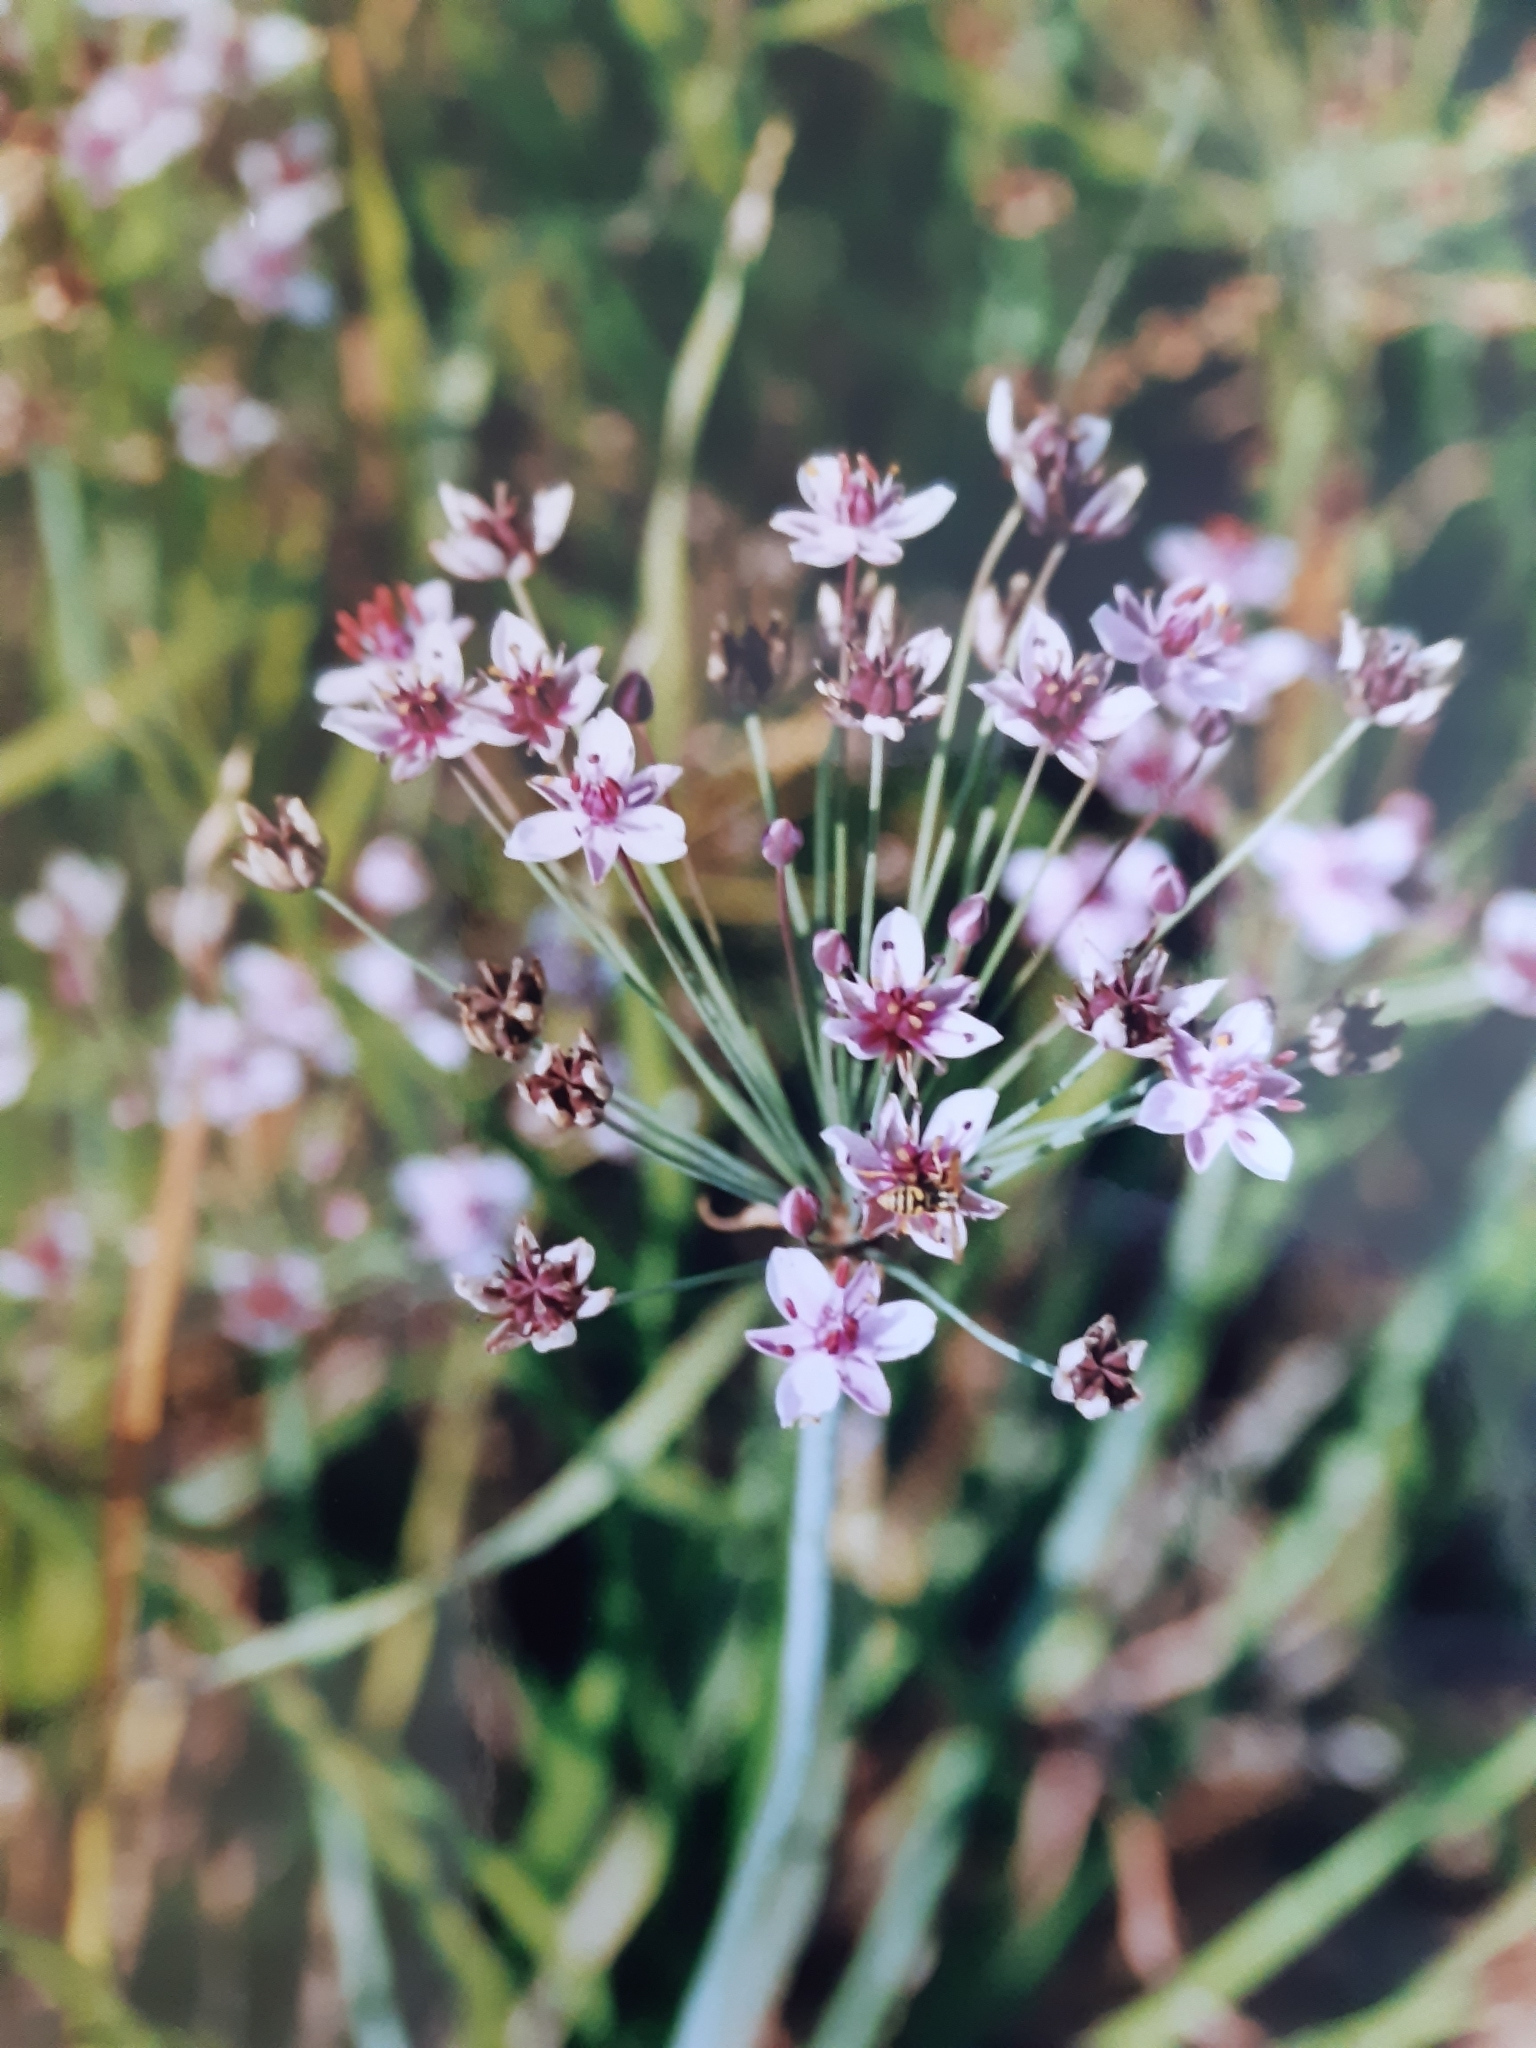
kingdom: Plantae
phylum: Tracheophyta
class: Liliopsida
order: Alismatales
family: Butomaceae
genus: Butomus
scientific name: Butomus umbellatus
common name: Flowering-rush
